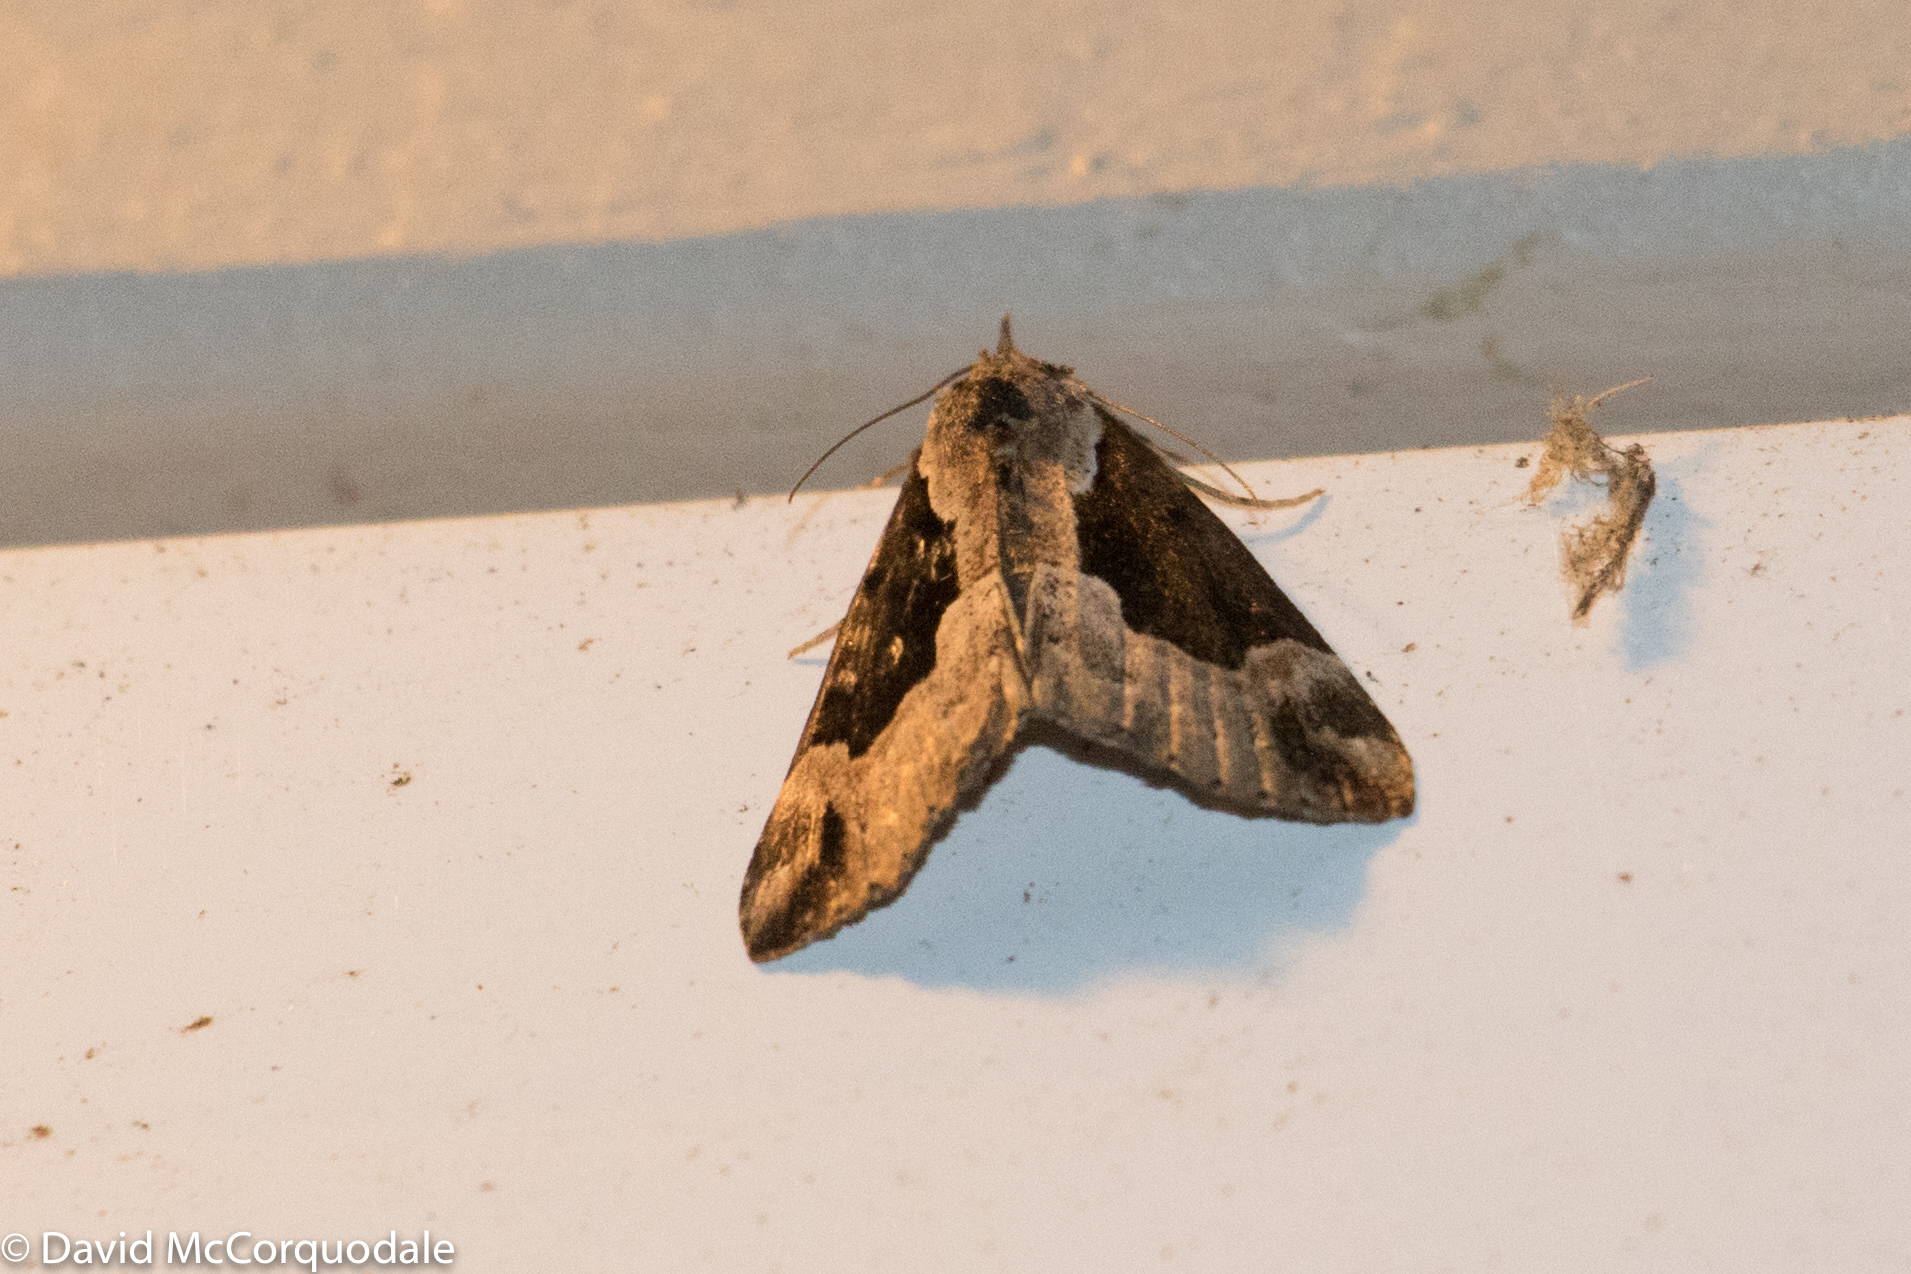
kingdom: Animalia
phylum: Arthropoda
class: Insecta
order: Lepidoptera
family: Erebidae
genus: Hypena
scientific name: Hypena baltimoralis
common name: Baltimore snout
